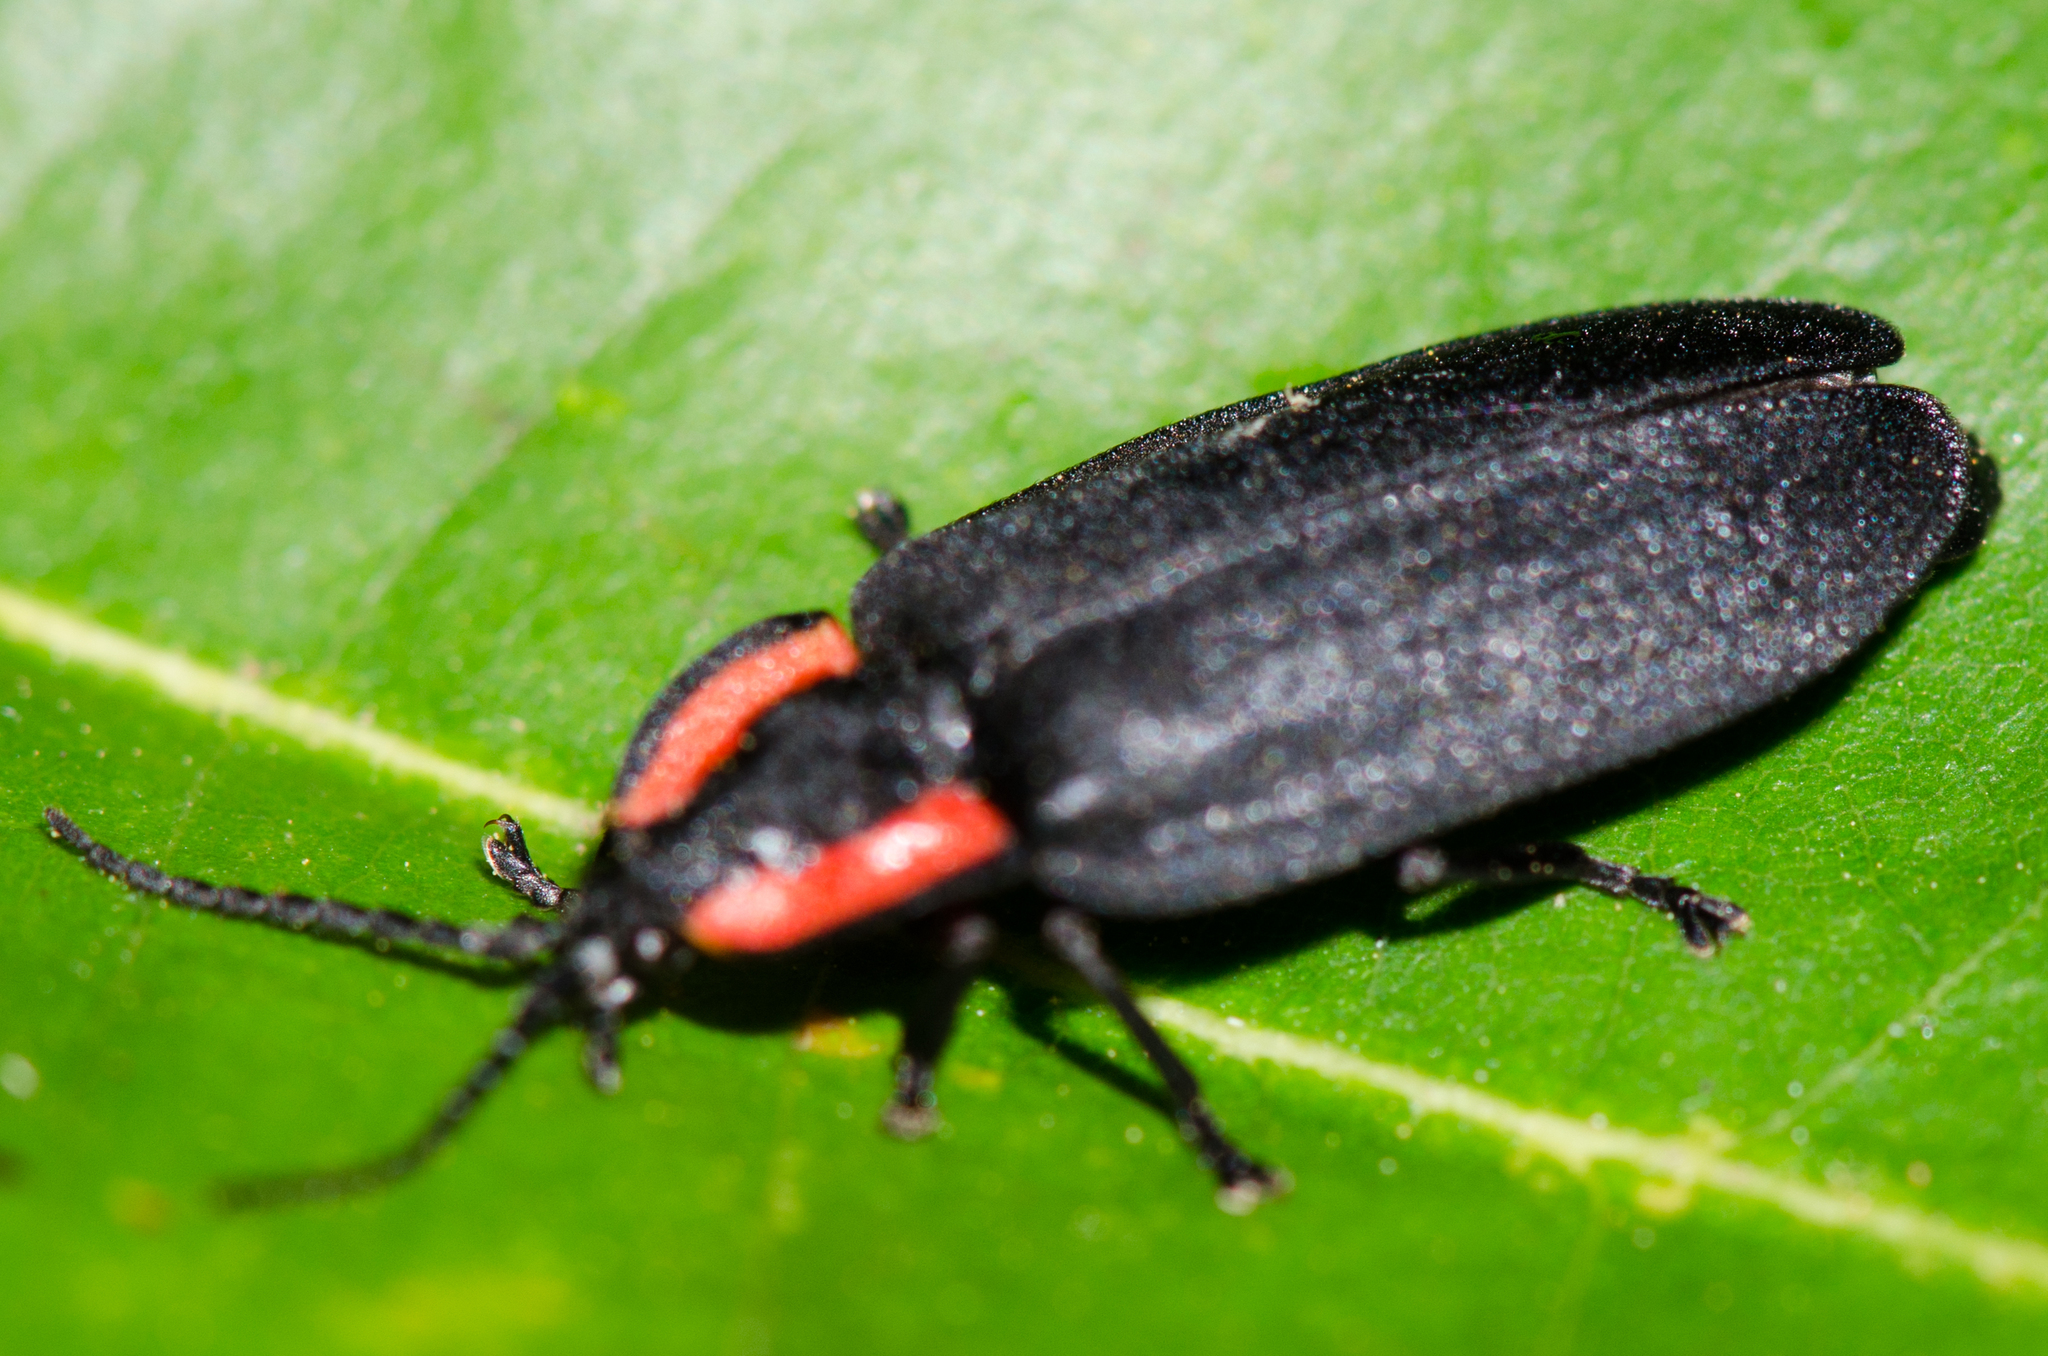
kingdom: Animalia
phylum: Arthropoda
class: Insecta
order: Coleoptera
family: Lampyridae
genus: Photinus
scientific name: Photinus californica
